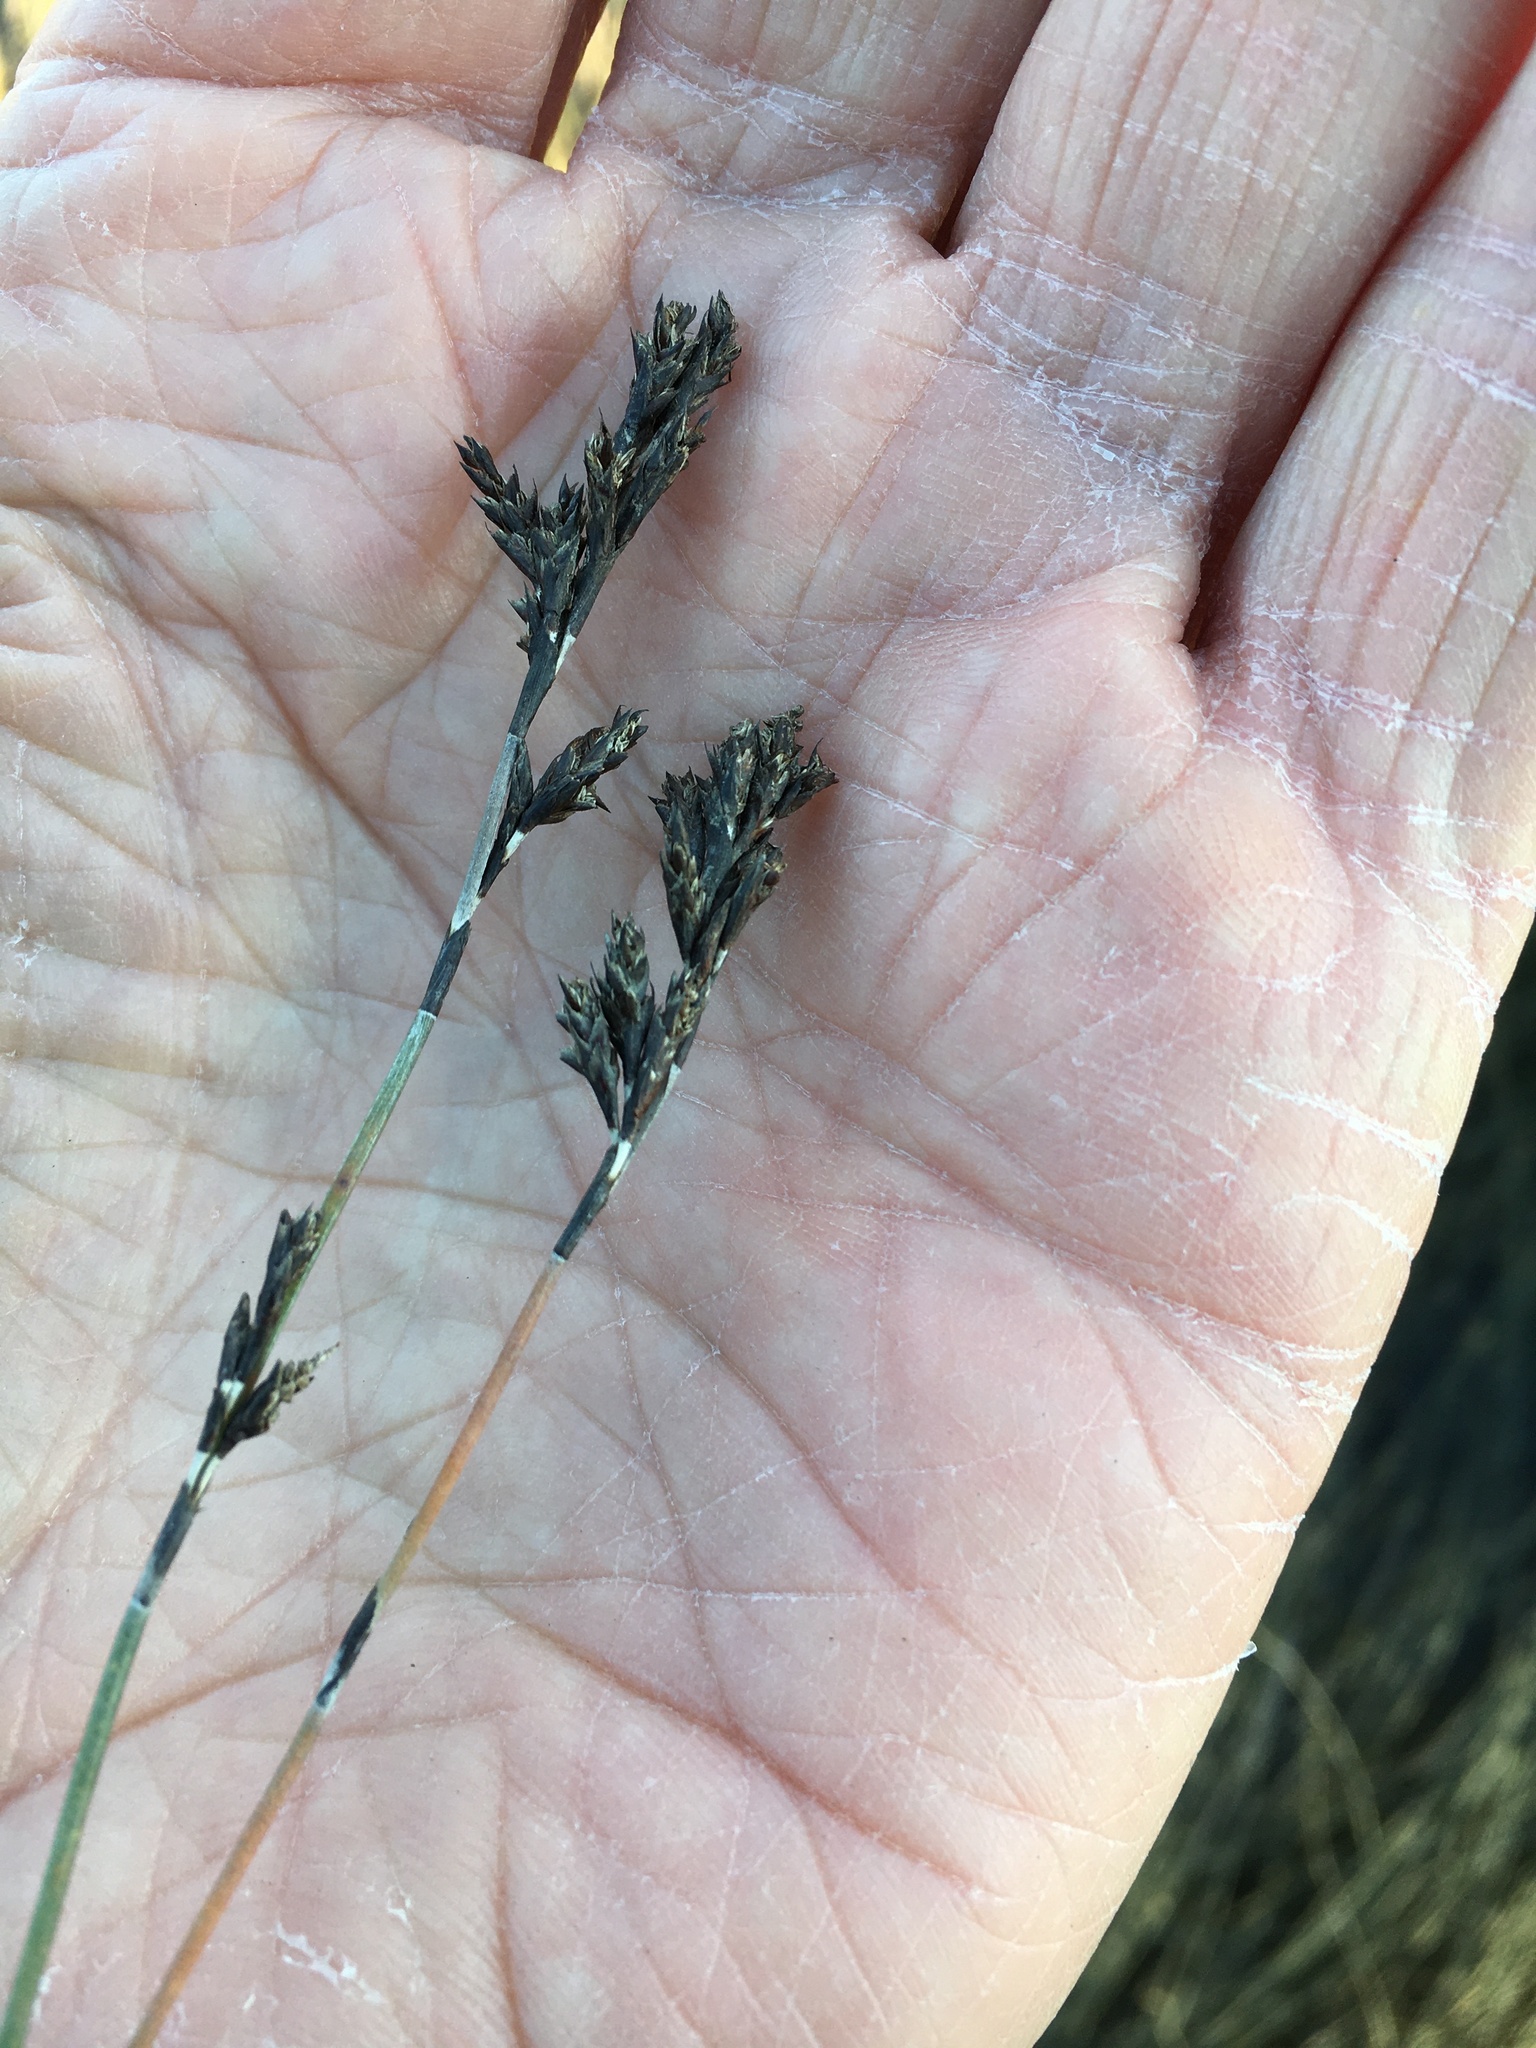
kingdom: Plantae
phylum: Tracheophyta
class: Liliopsida
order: Poales
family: Restionaceae
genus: Apodasmia
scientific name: Apodasmia similis
